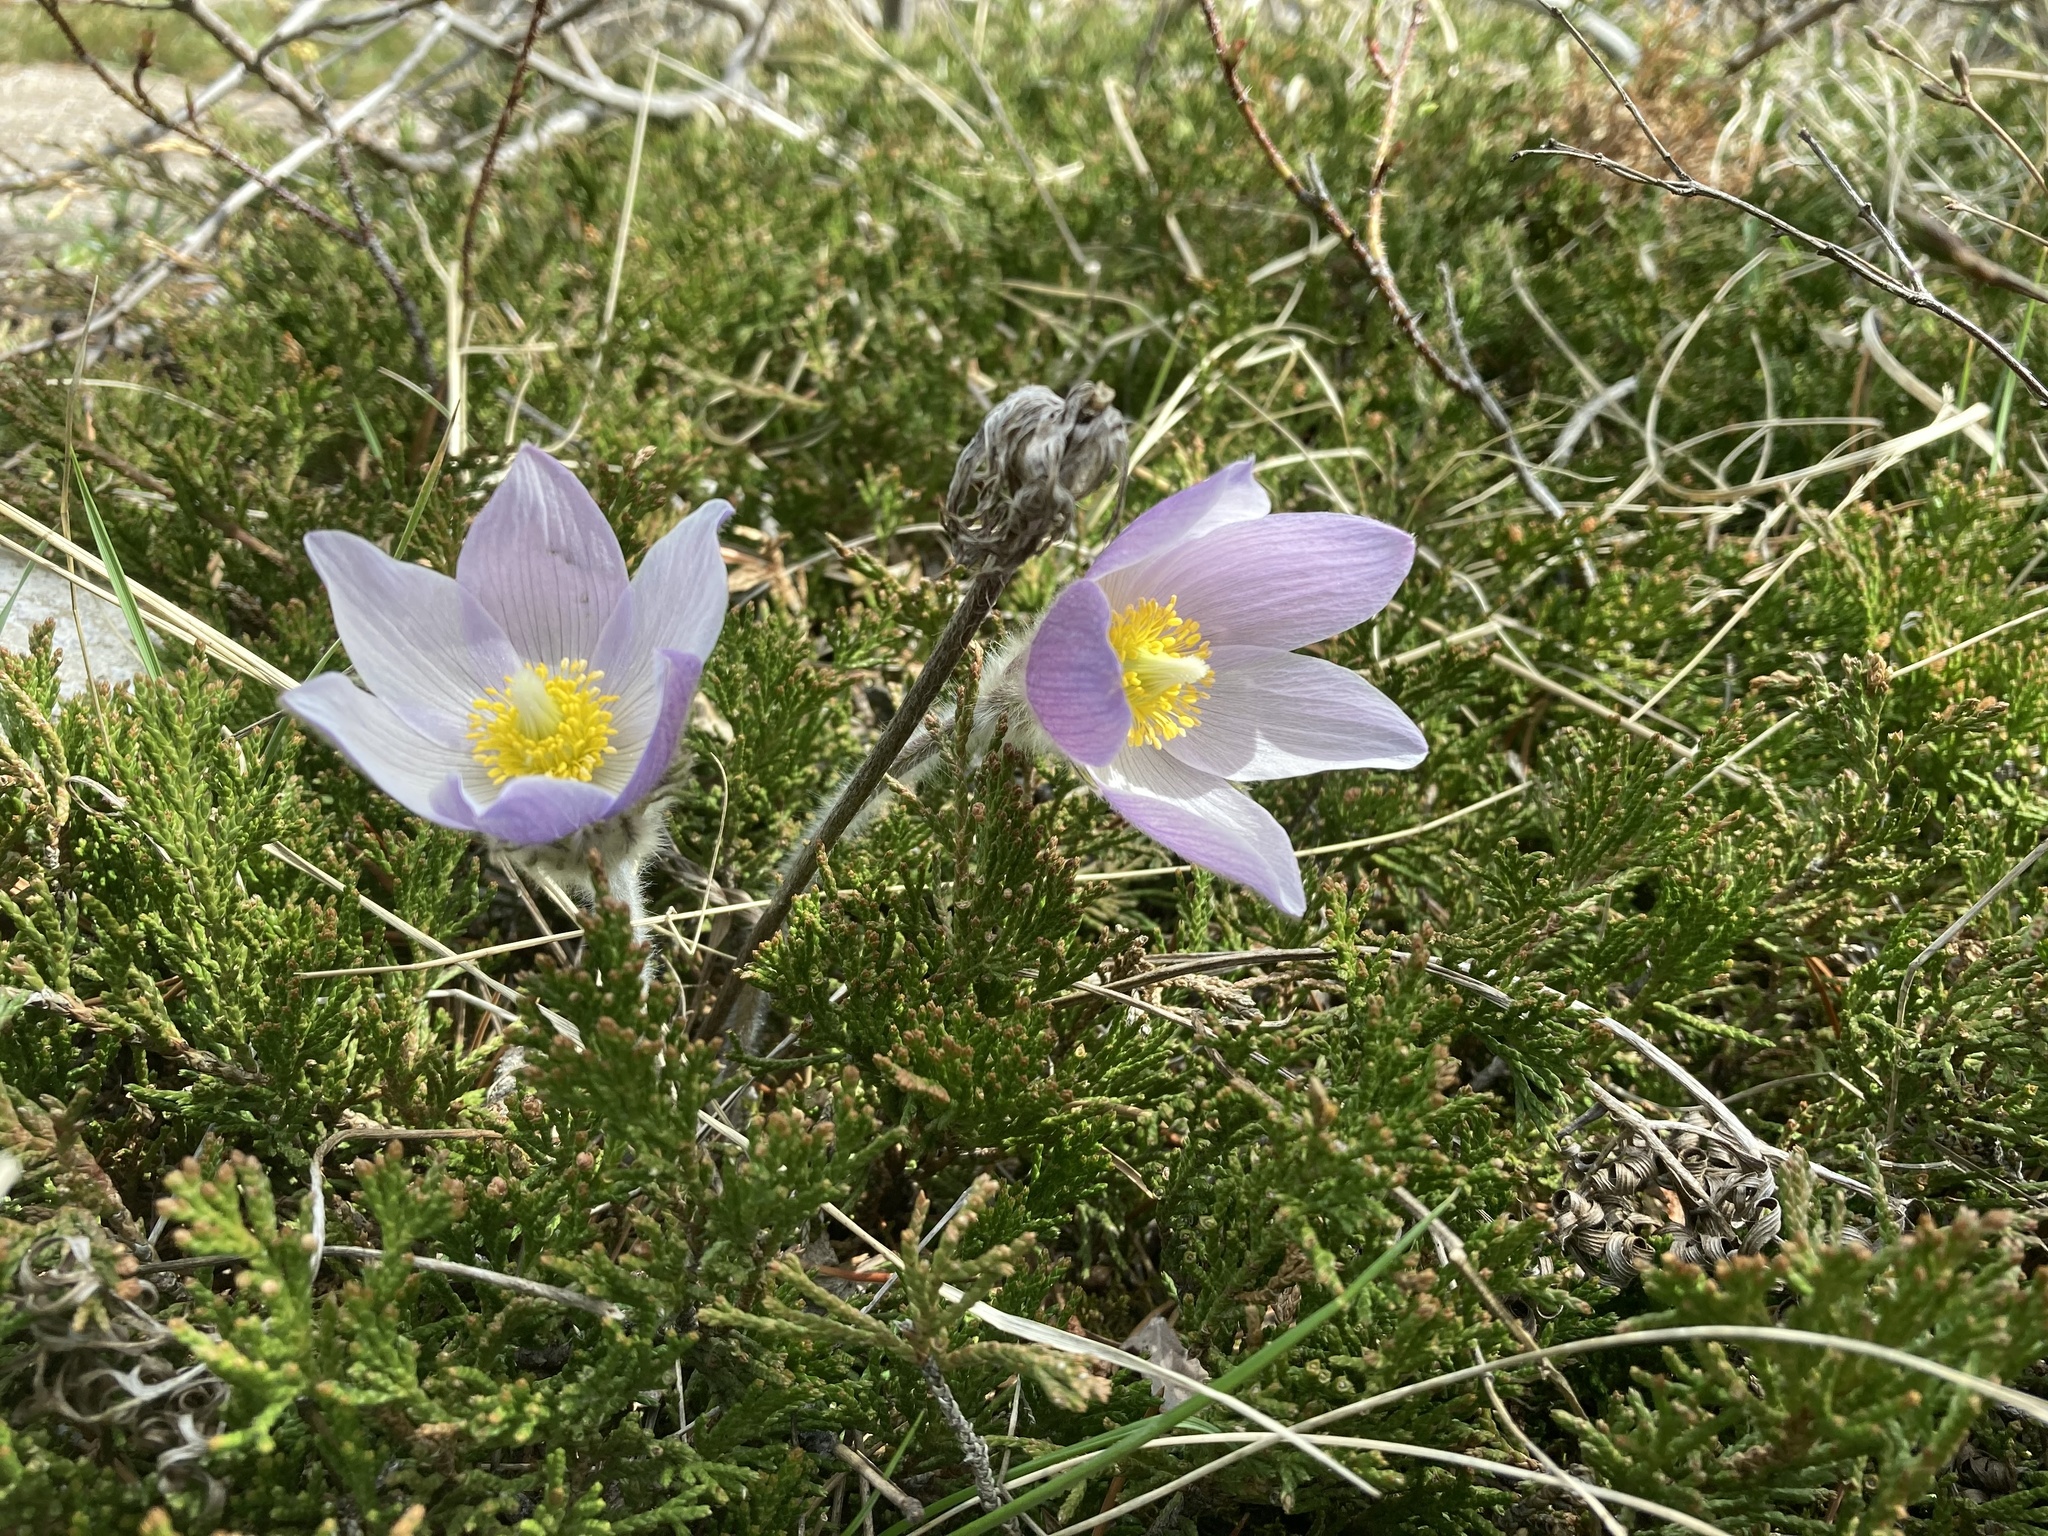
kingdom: Plantae
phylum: Tracheophyta
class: Magnoliopsida
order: Ranunculales
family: Ranunculaceae
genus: Pulsatilla
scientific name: Pulsatilla nuttalliana
